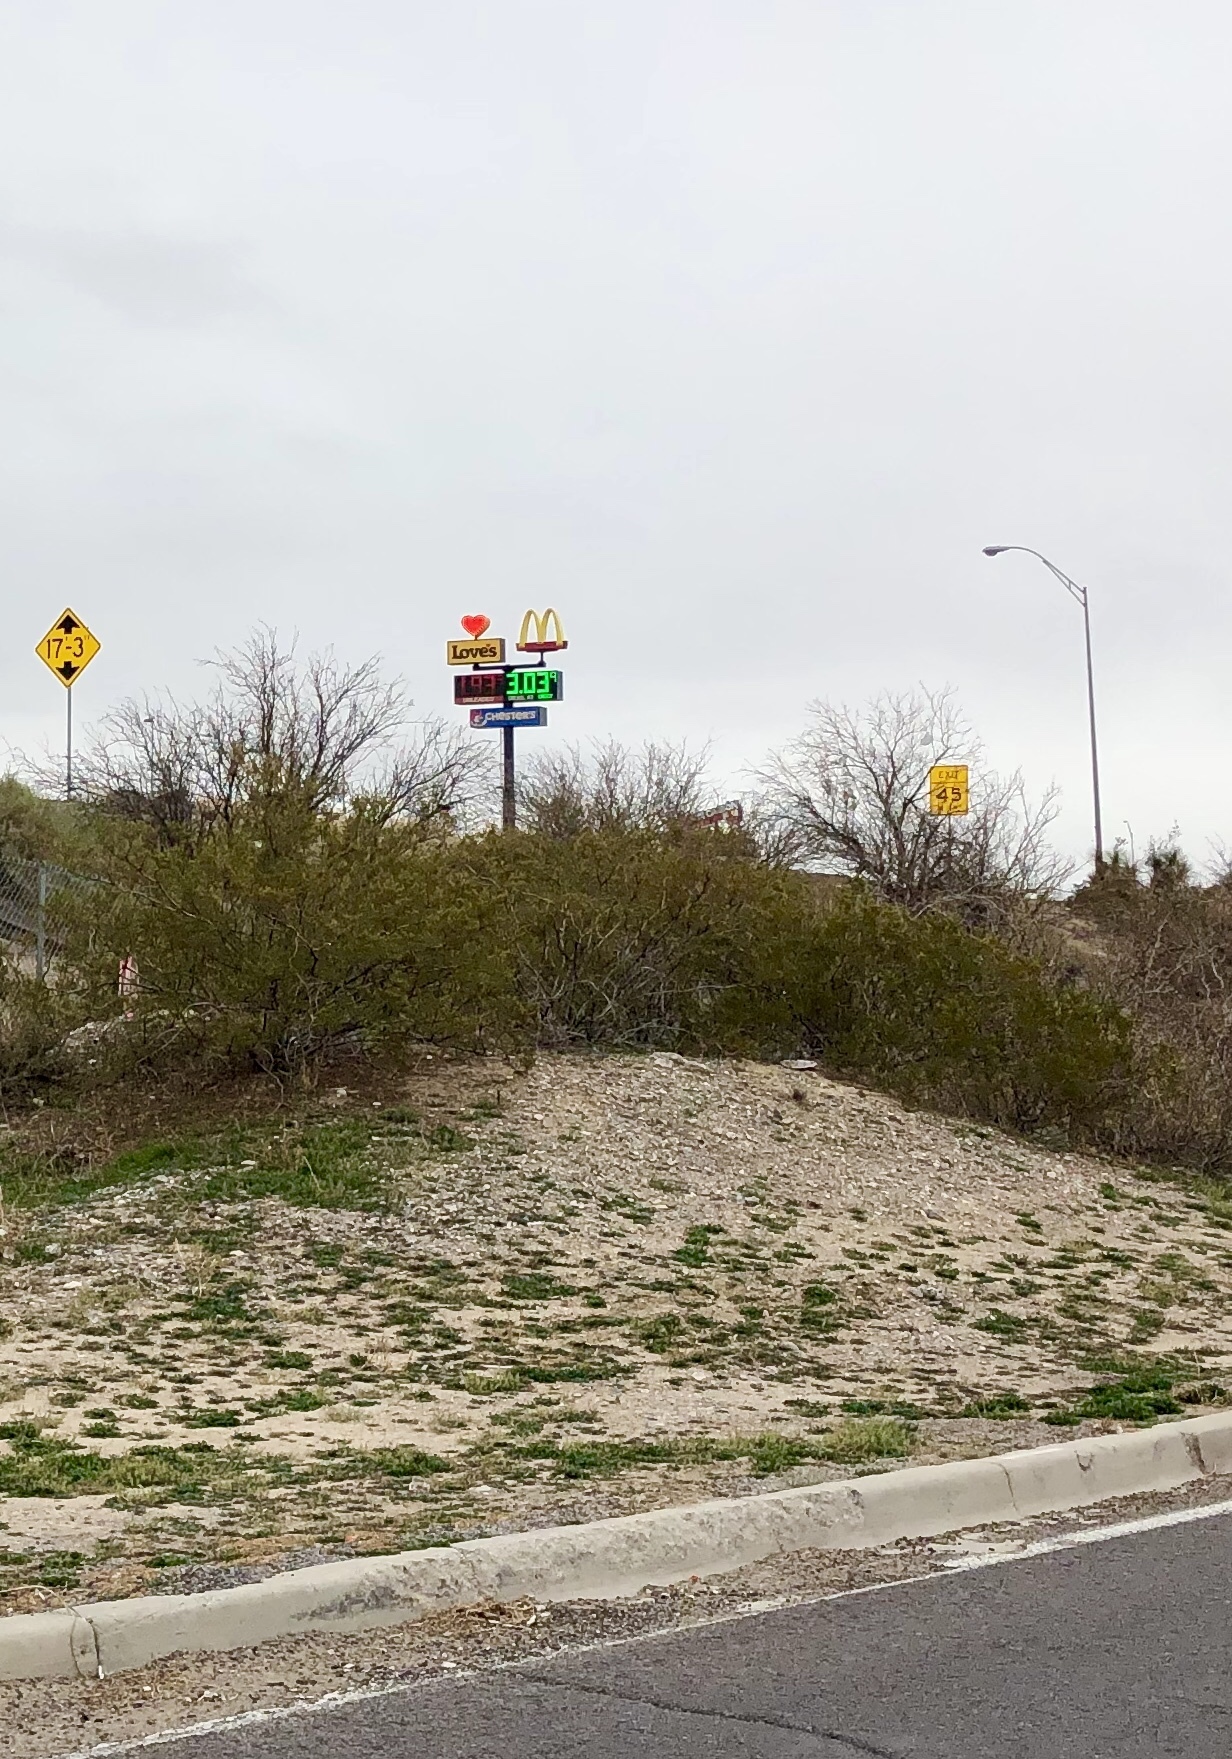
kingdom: Plantae
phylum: Tracheophyta
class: Magnoliopsida
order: Zygophyllales
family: Zygophyllaceae
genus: Larrea
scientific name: Larrea tridentata
